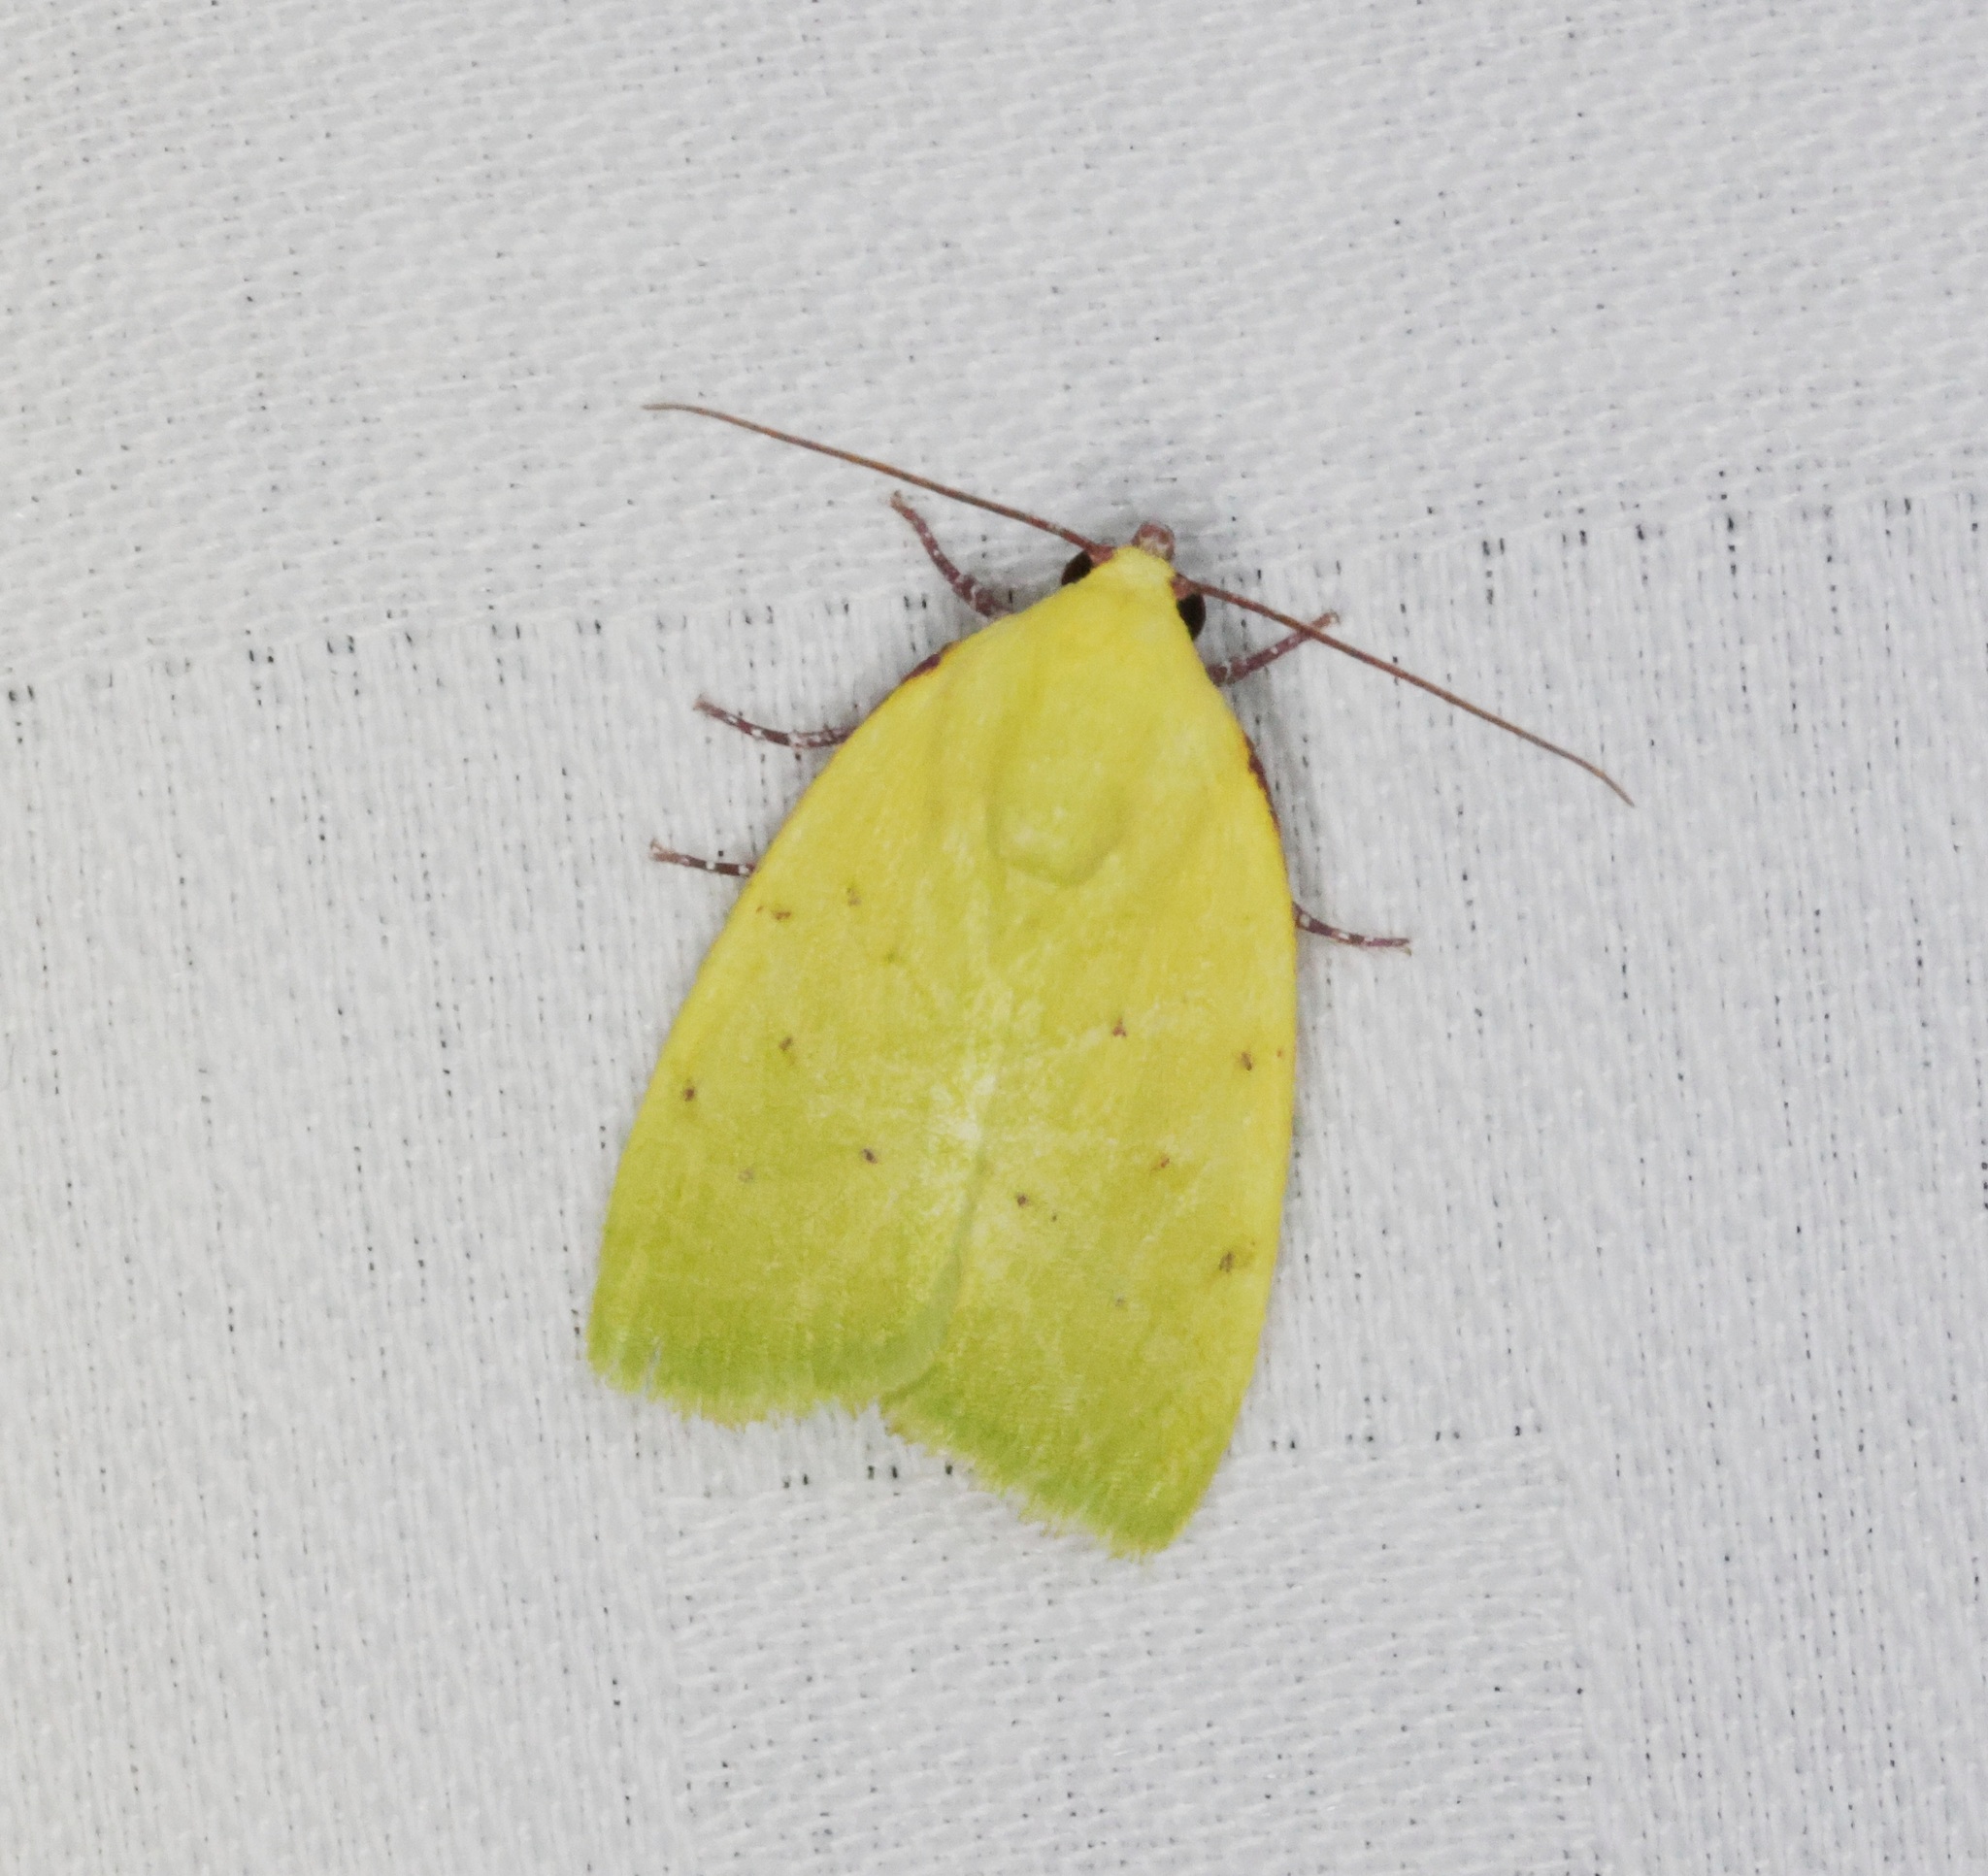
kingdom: Animalia
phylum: Arthropoda
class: Insecta
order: Lepidoptera
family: Nolidae
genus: Earias
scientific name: Earias flavida
